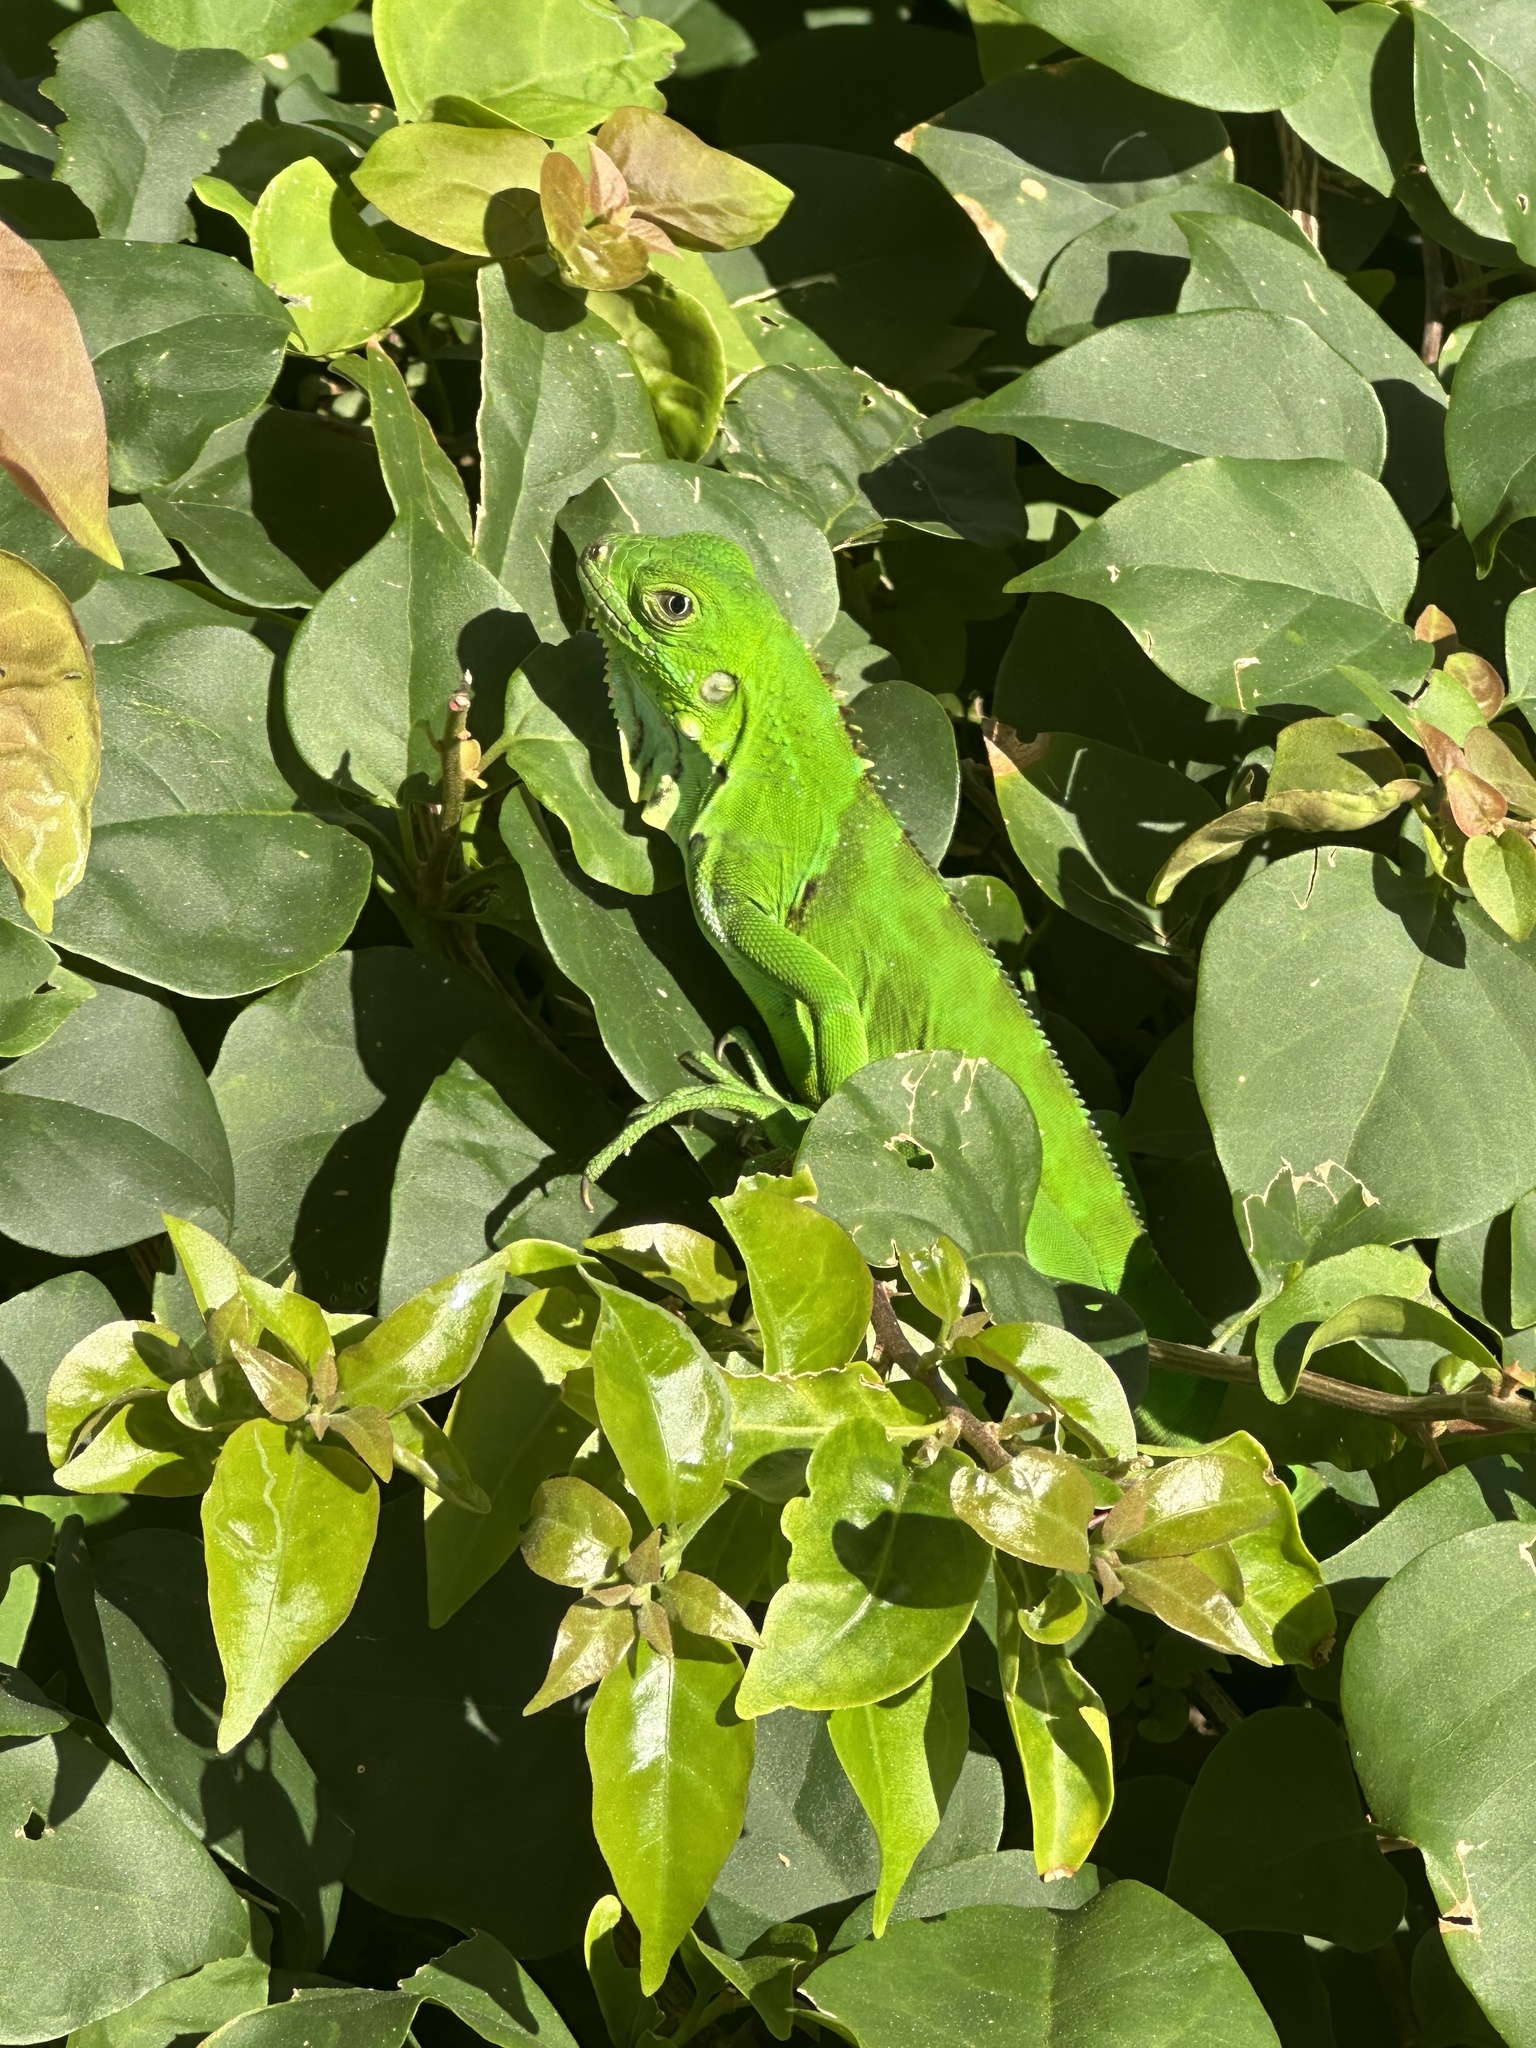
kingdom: Animalia
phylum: Chordata
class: Squamata
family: Iguanidae
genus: Iguana
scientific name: Iguana iguana
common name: Green iguana
